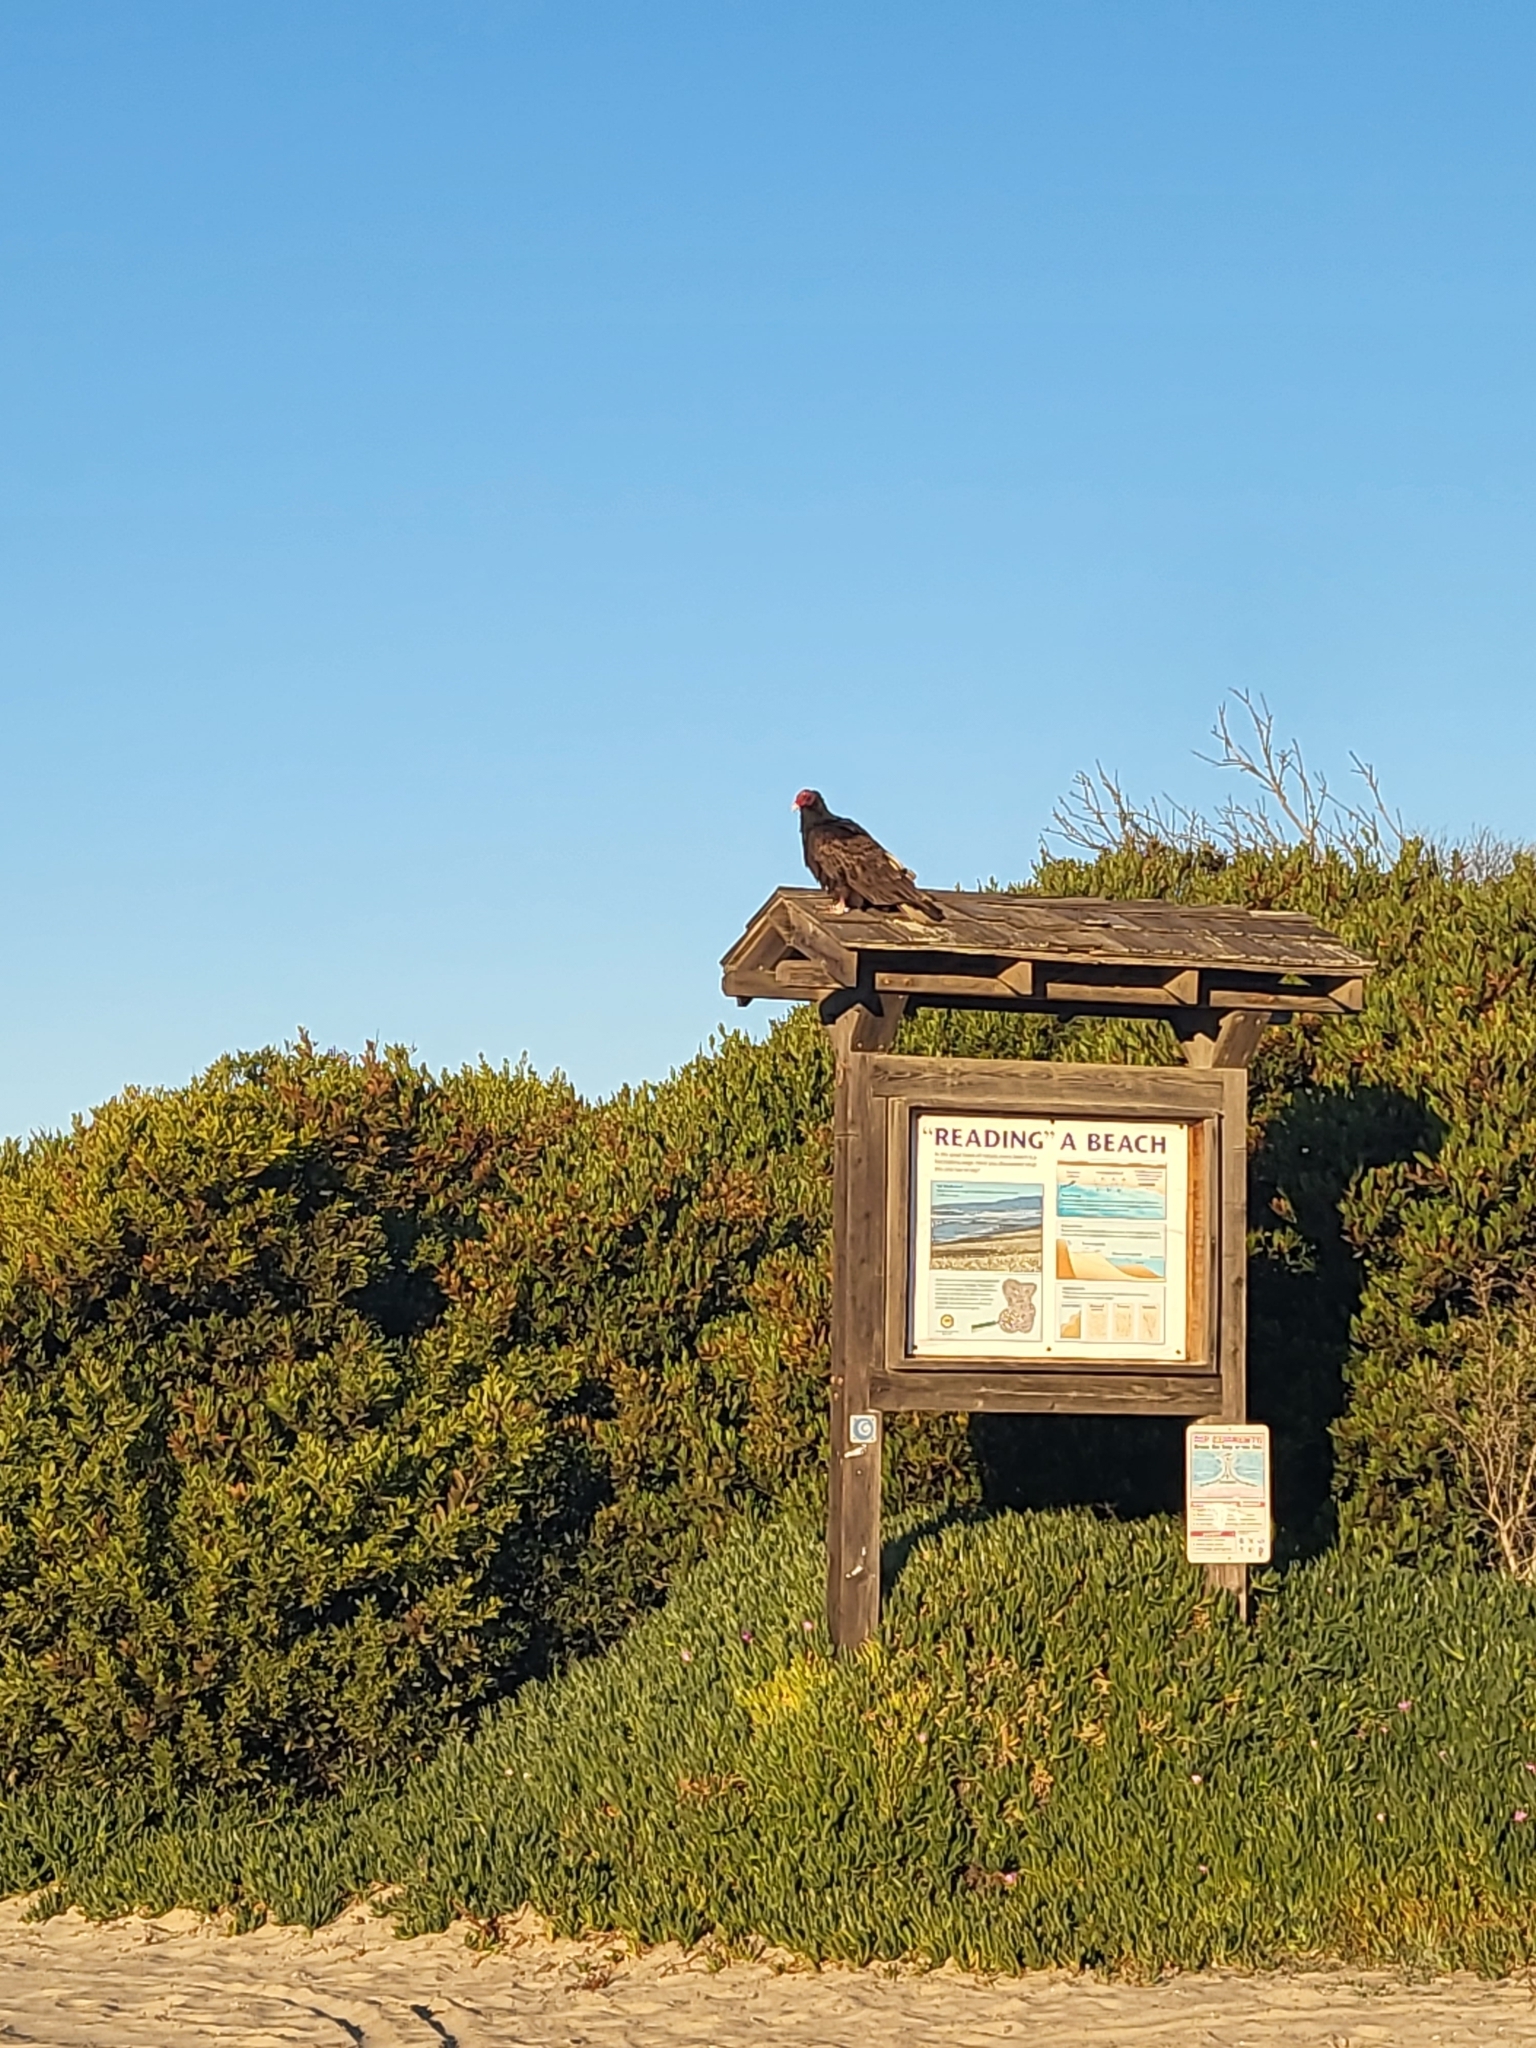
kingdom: Animalia
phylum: Chordata
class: Aves
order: Accipitriformes
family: Cathartidae
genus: Cathartes
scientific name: Cathartes aura
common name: Turkey vulture
